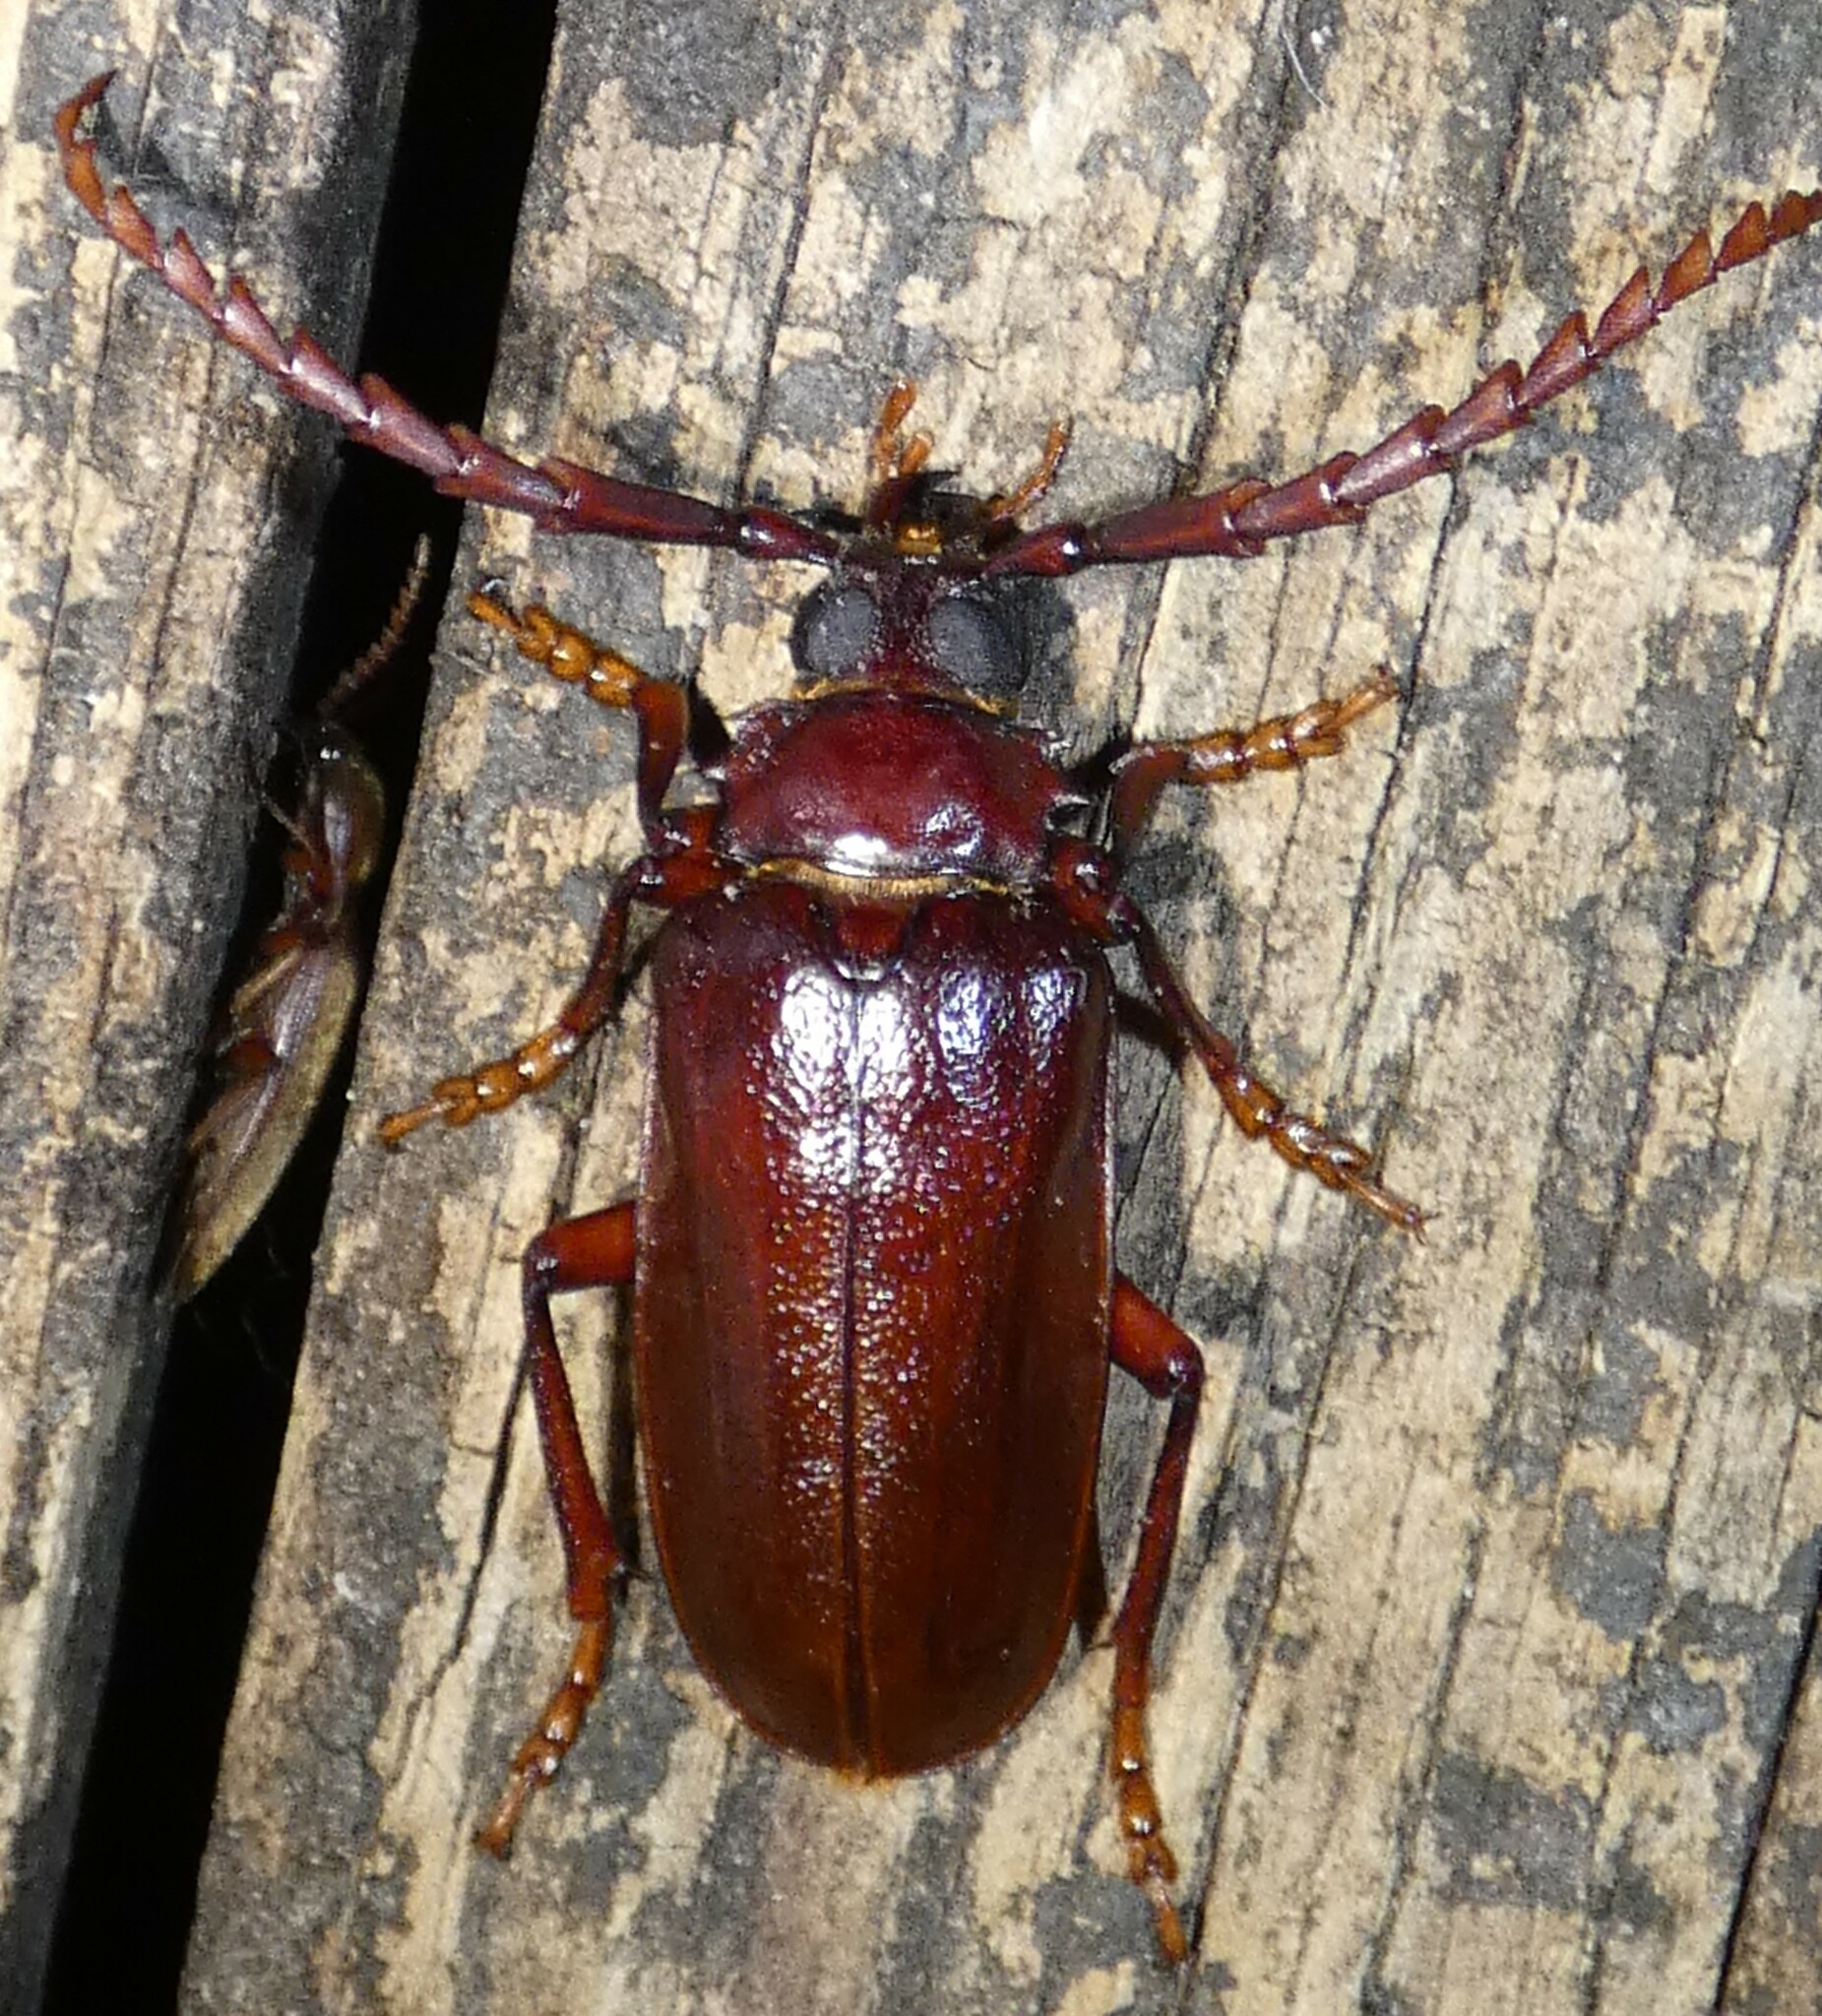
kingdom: Animalia
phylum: Arthropoda
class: Insecta
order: Coleoptera
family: Cerambycidae
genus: Prionus
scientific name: Prionus pocularis
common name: Tooth-necked longhorn beetle
